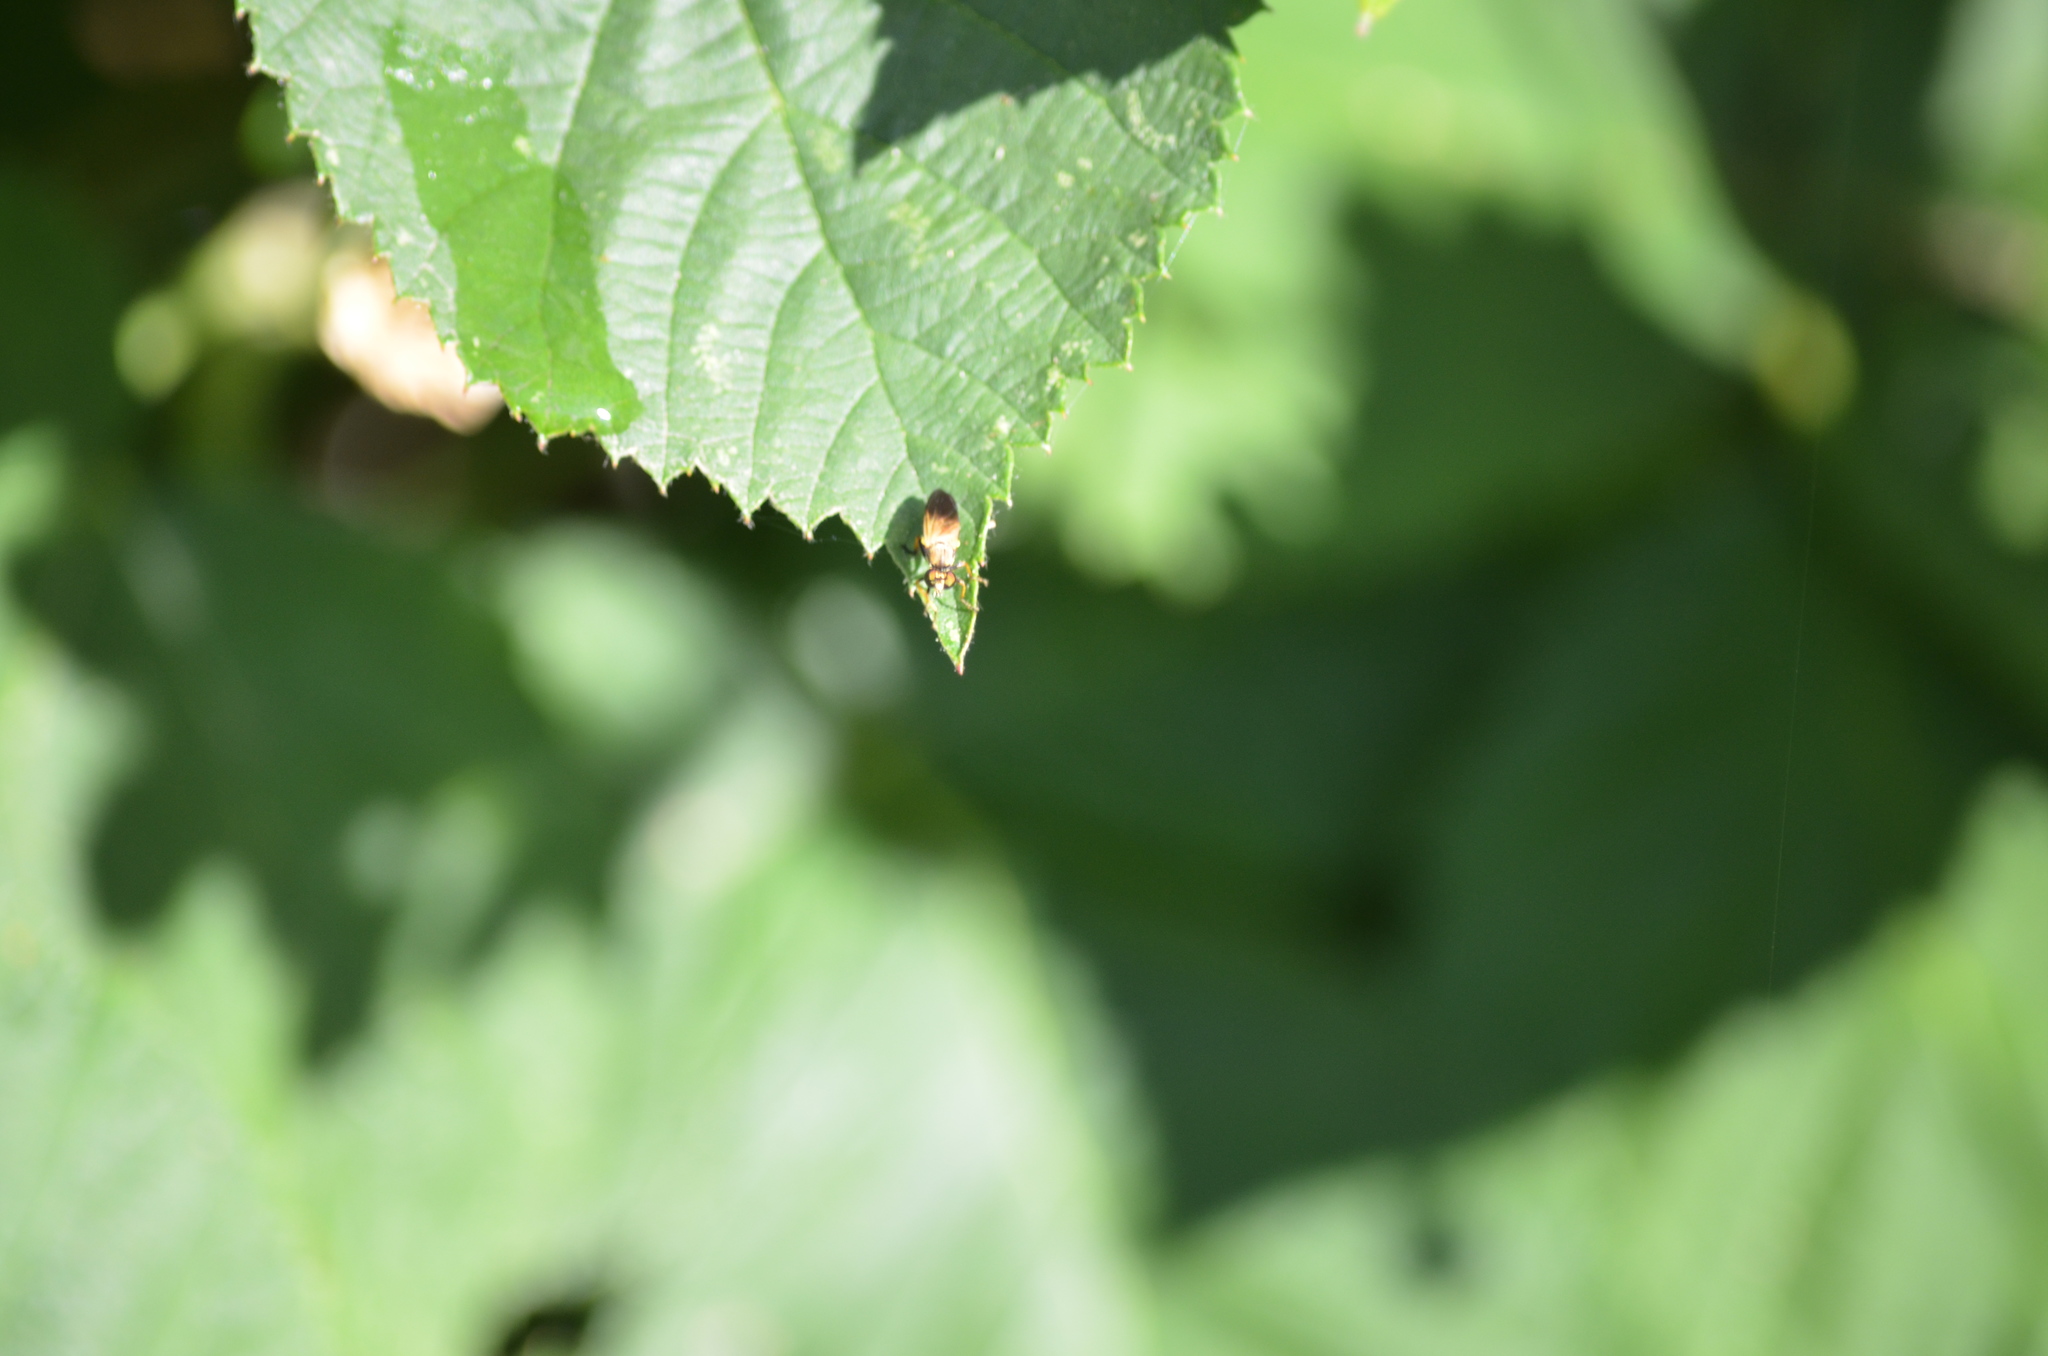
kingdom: Animalia
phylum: Arthropoda
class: Insecta
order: Diptera
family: Asilidae
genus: Eudioctria
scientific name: Eudioctria sackeni
